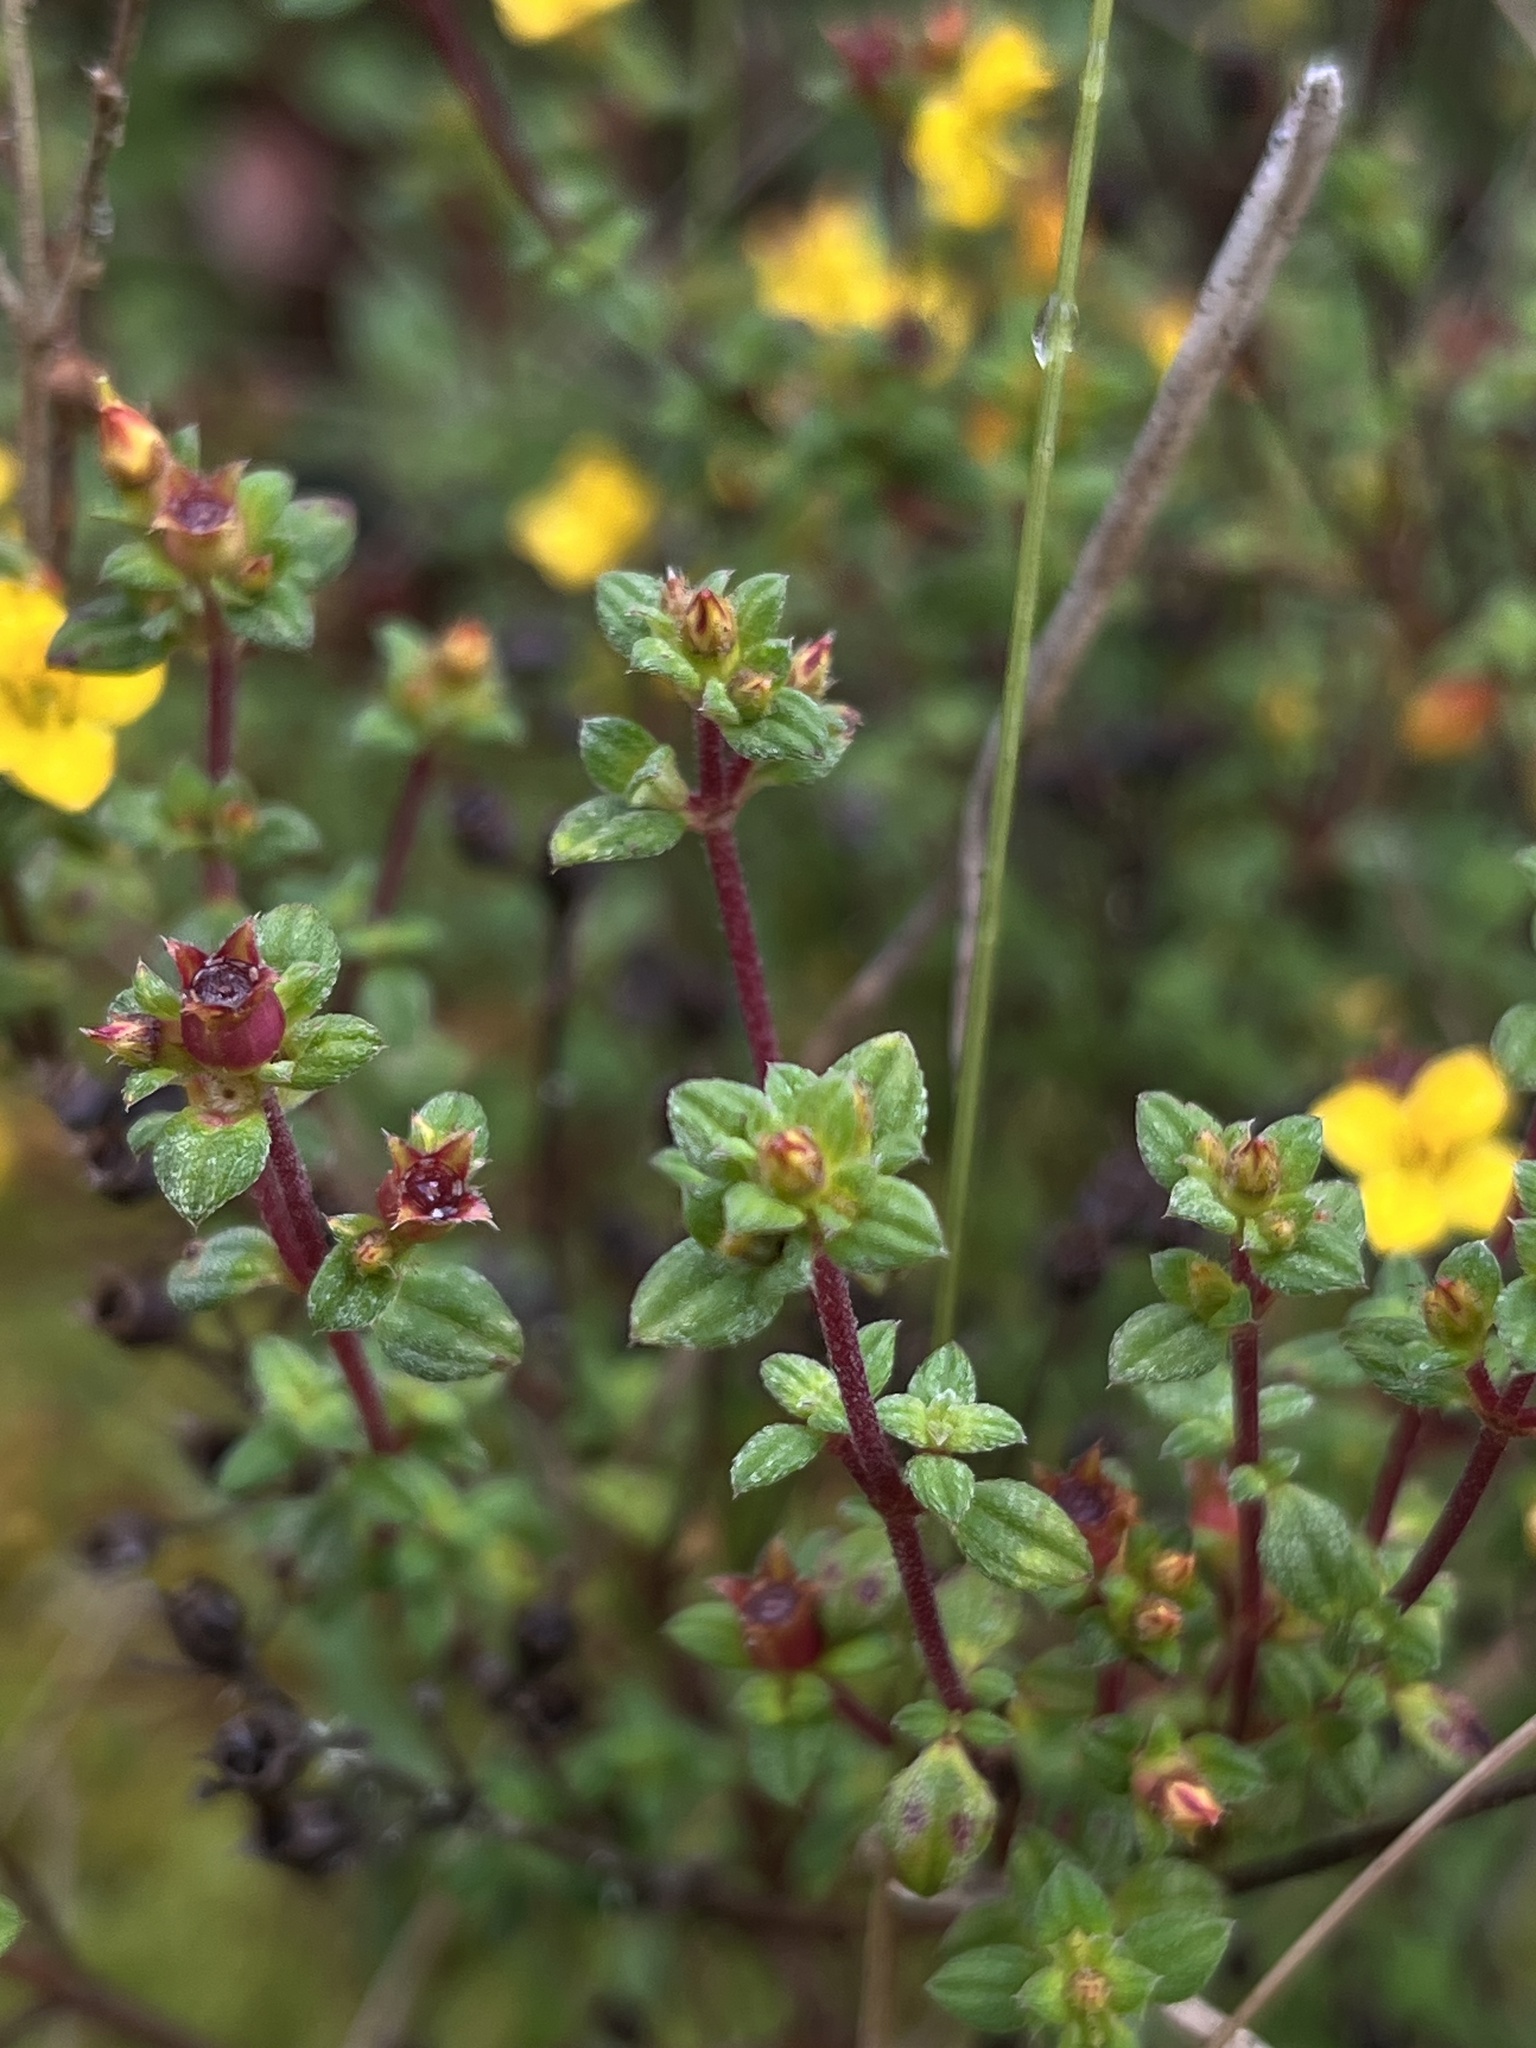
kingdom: Plantae
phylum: Tracheophyta
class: Magnoliopsida
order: Myrtales
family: Melastomataceae
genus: Chaetolepis
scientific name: Chaetolepis microphylla
